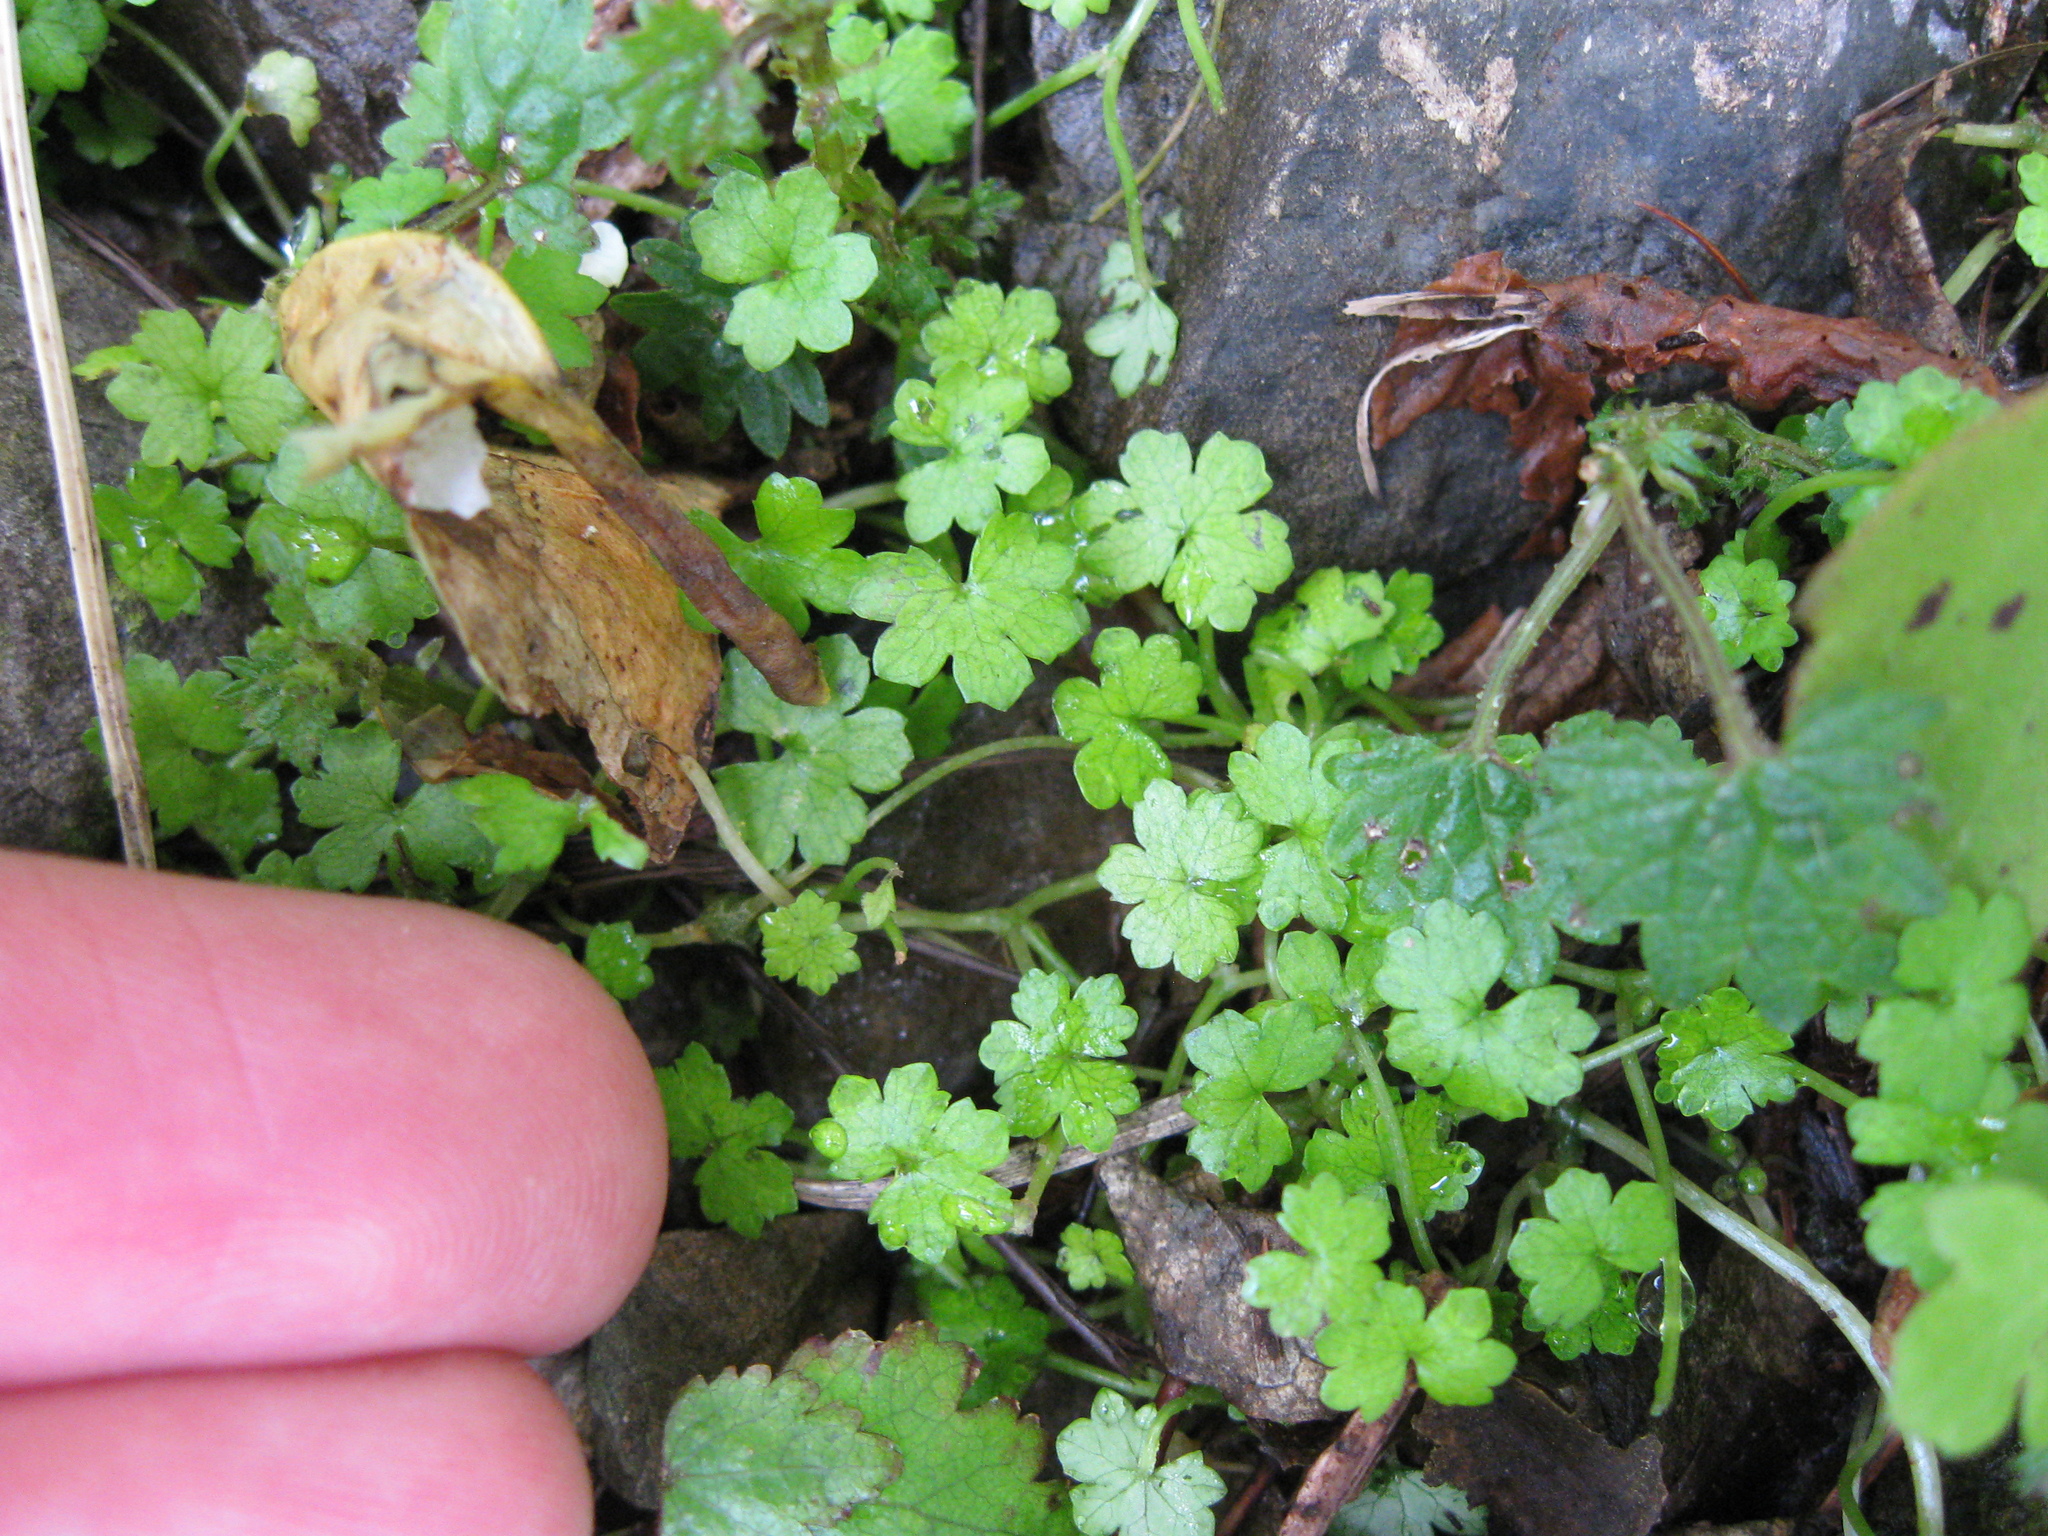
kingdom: Plantae
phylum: Tracheophyta
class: Magnoliopsida
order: Apiales
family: Araliaceae
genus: Hydrocotyle
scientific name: Hydrocotyle heteromeria
